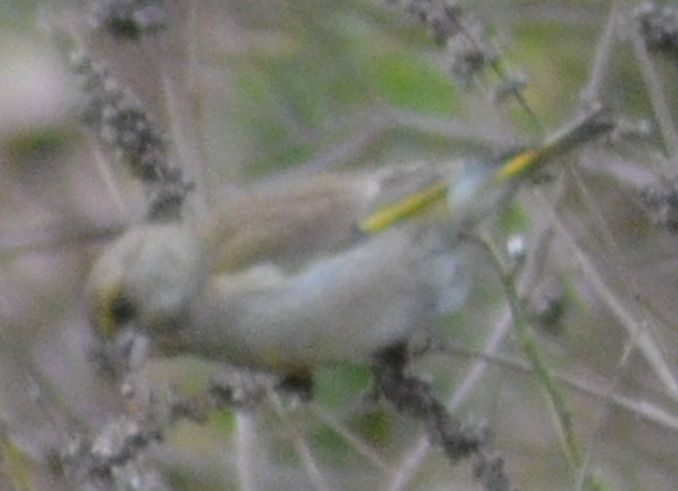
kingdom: Plantae
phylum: Tracheophyta
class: Liliopsida
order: Poales
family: Poaceae
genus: Chloris
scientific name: Chloris chloris
